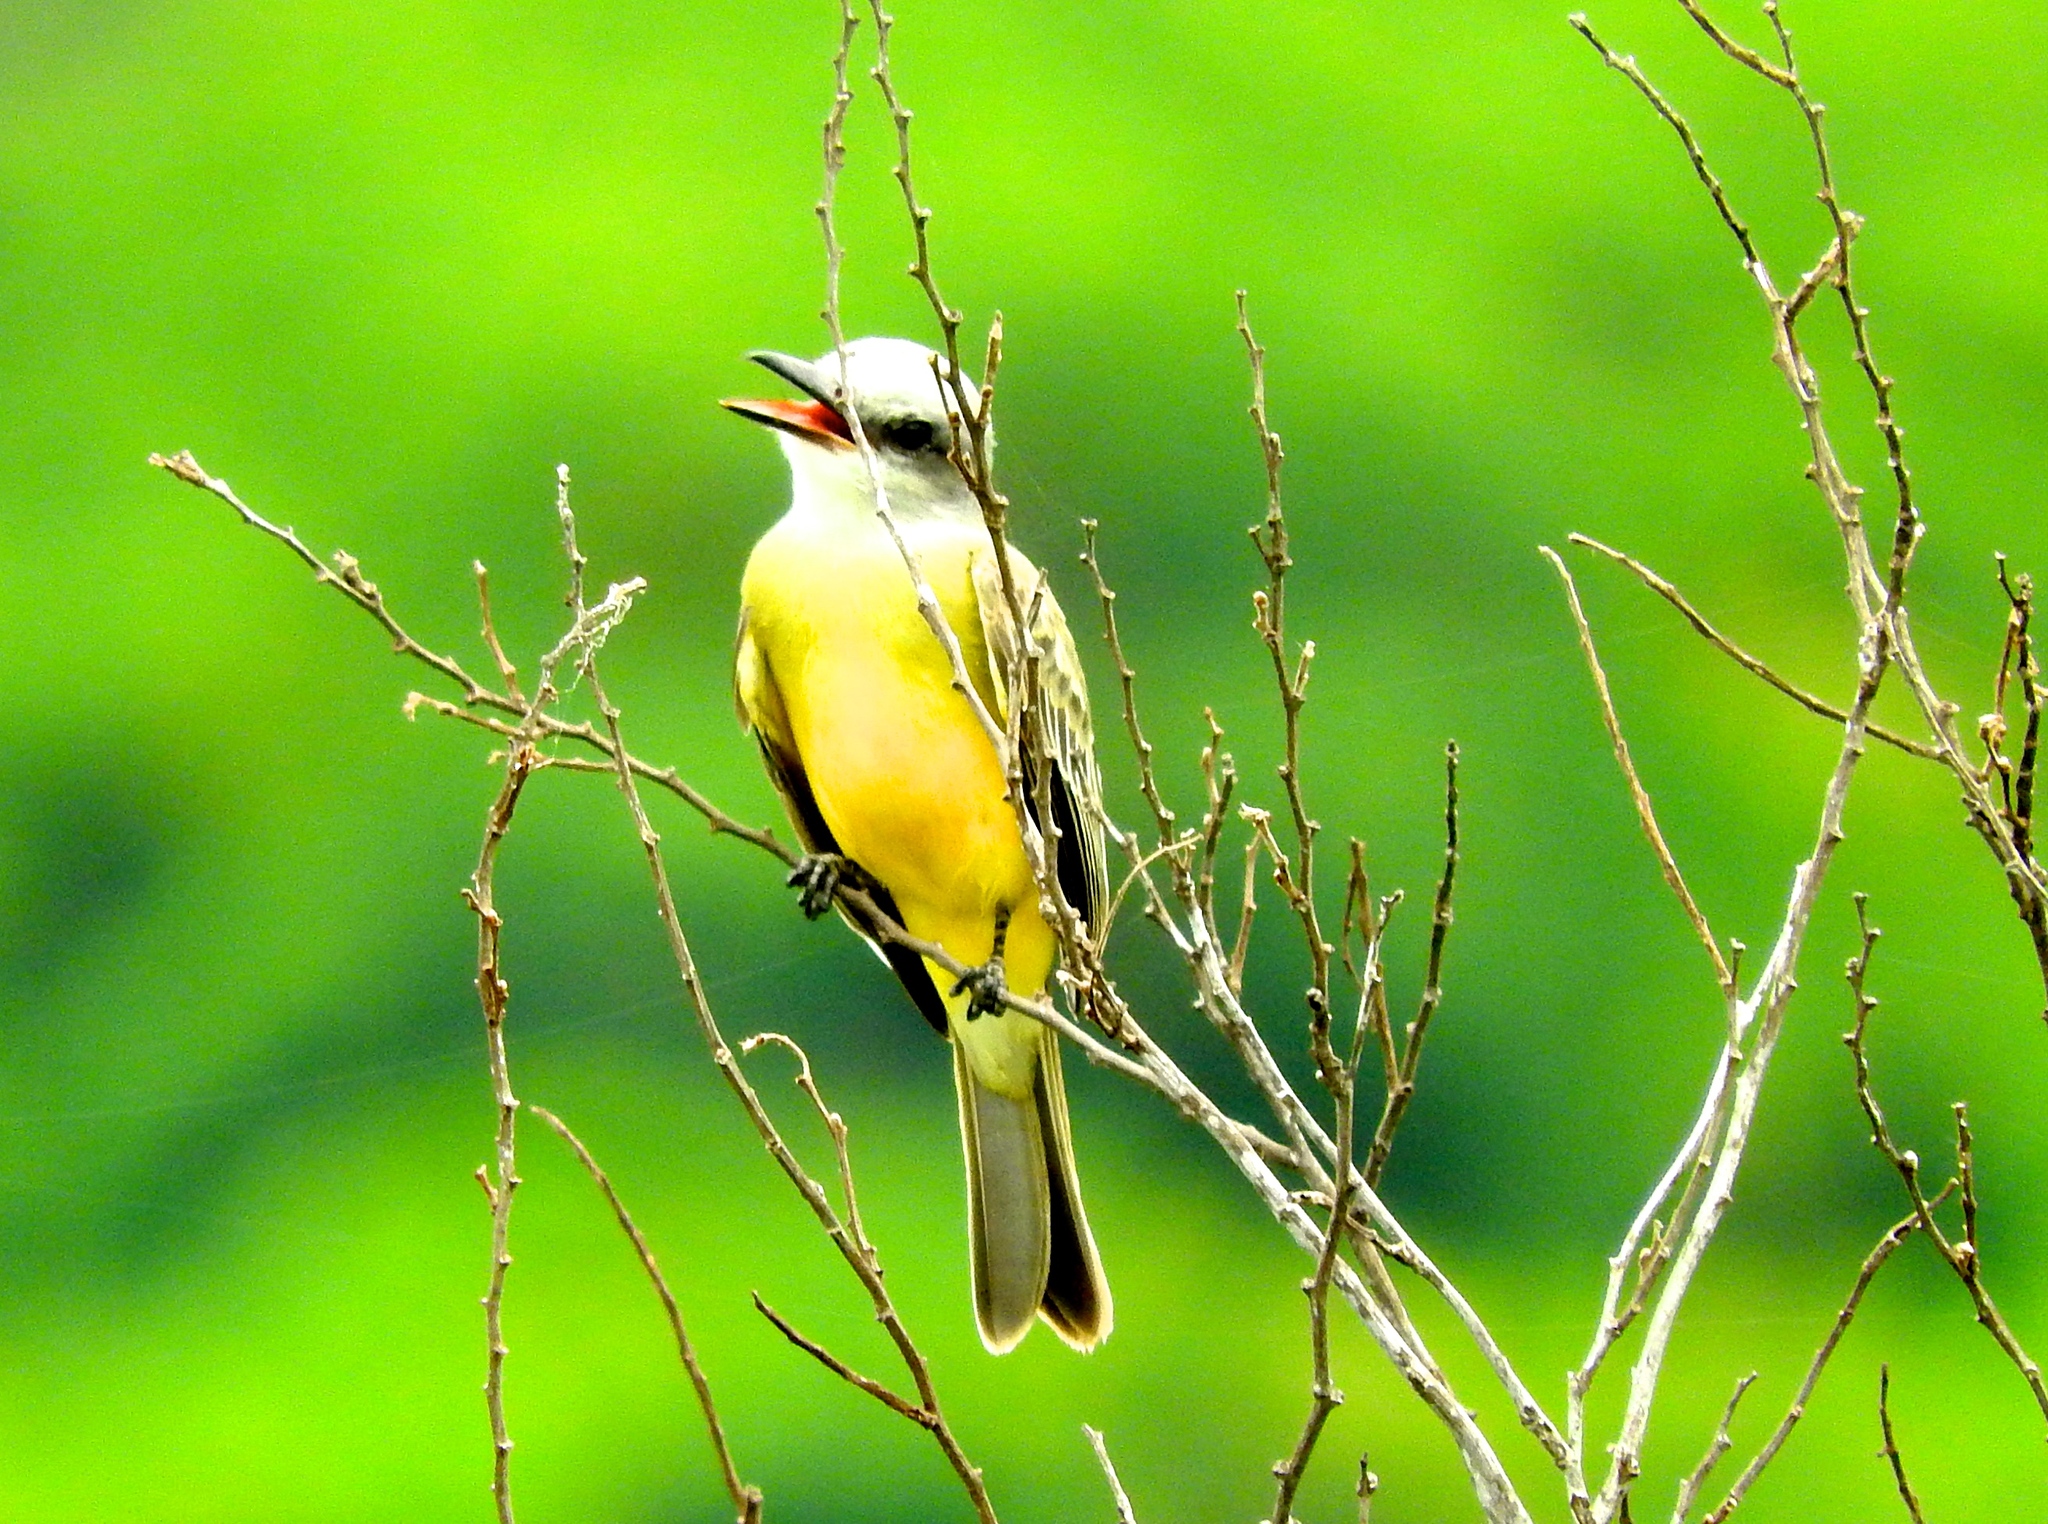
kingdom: Animalia
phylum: Chordata
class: Aves
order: Passeriformes
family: Tyrannidae
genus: Tyrannus
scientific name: Tyrannus melancholicus
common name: Tropical kingbird
